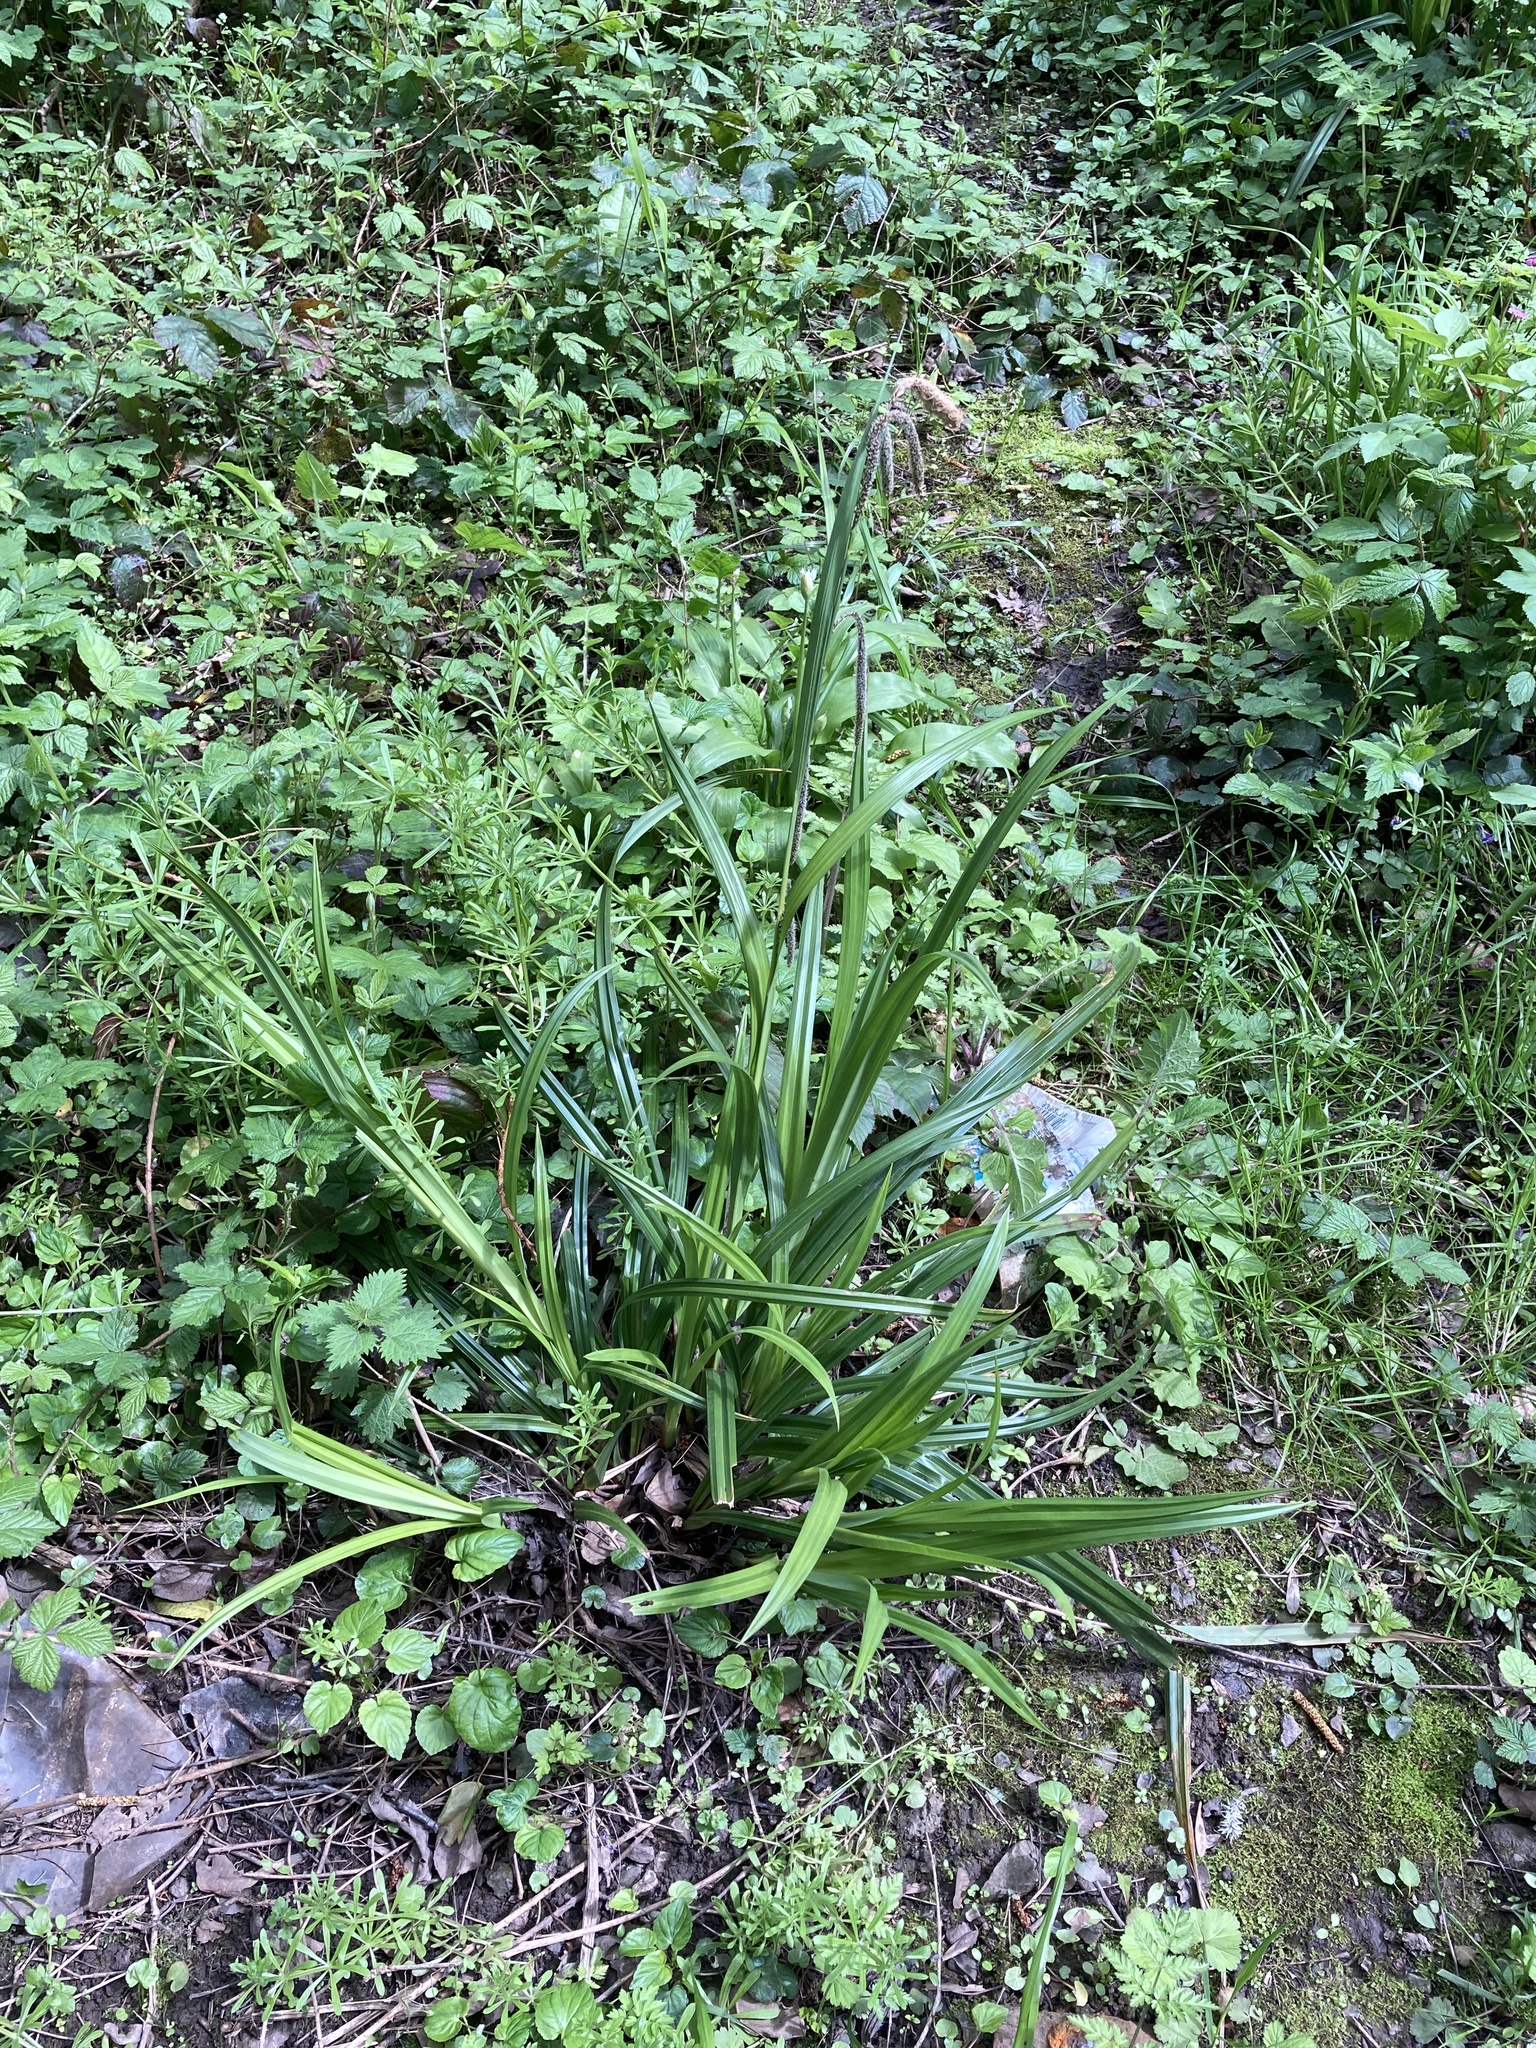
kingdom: Plantae
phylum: Tracheophyta
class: Liliopsida
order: Poales
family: Cyperaceae
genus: Carex
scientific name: Carex pendula
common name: Pendulous sedge
